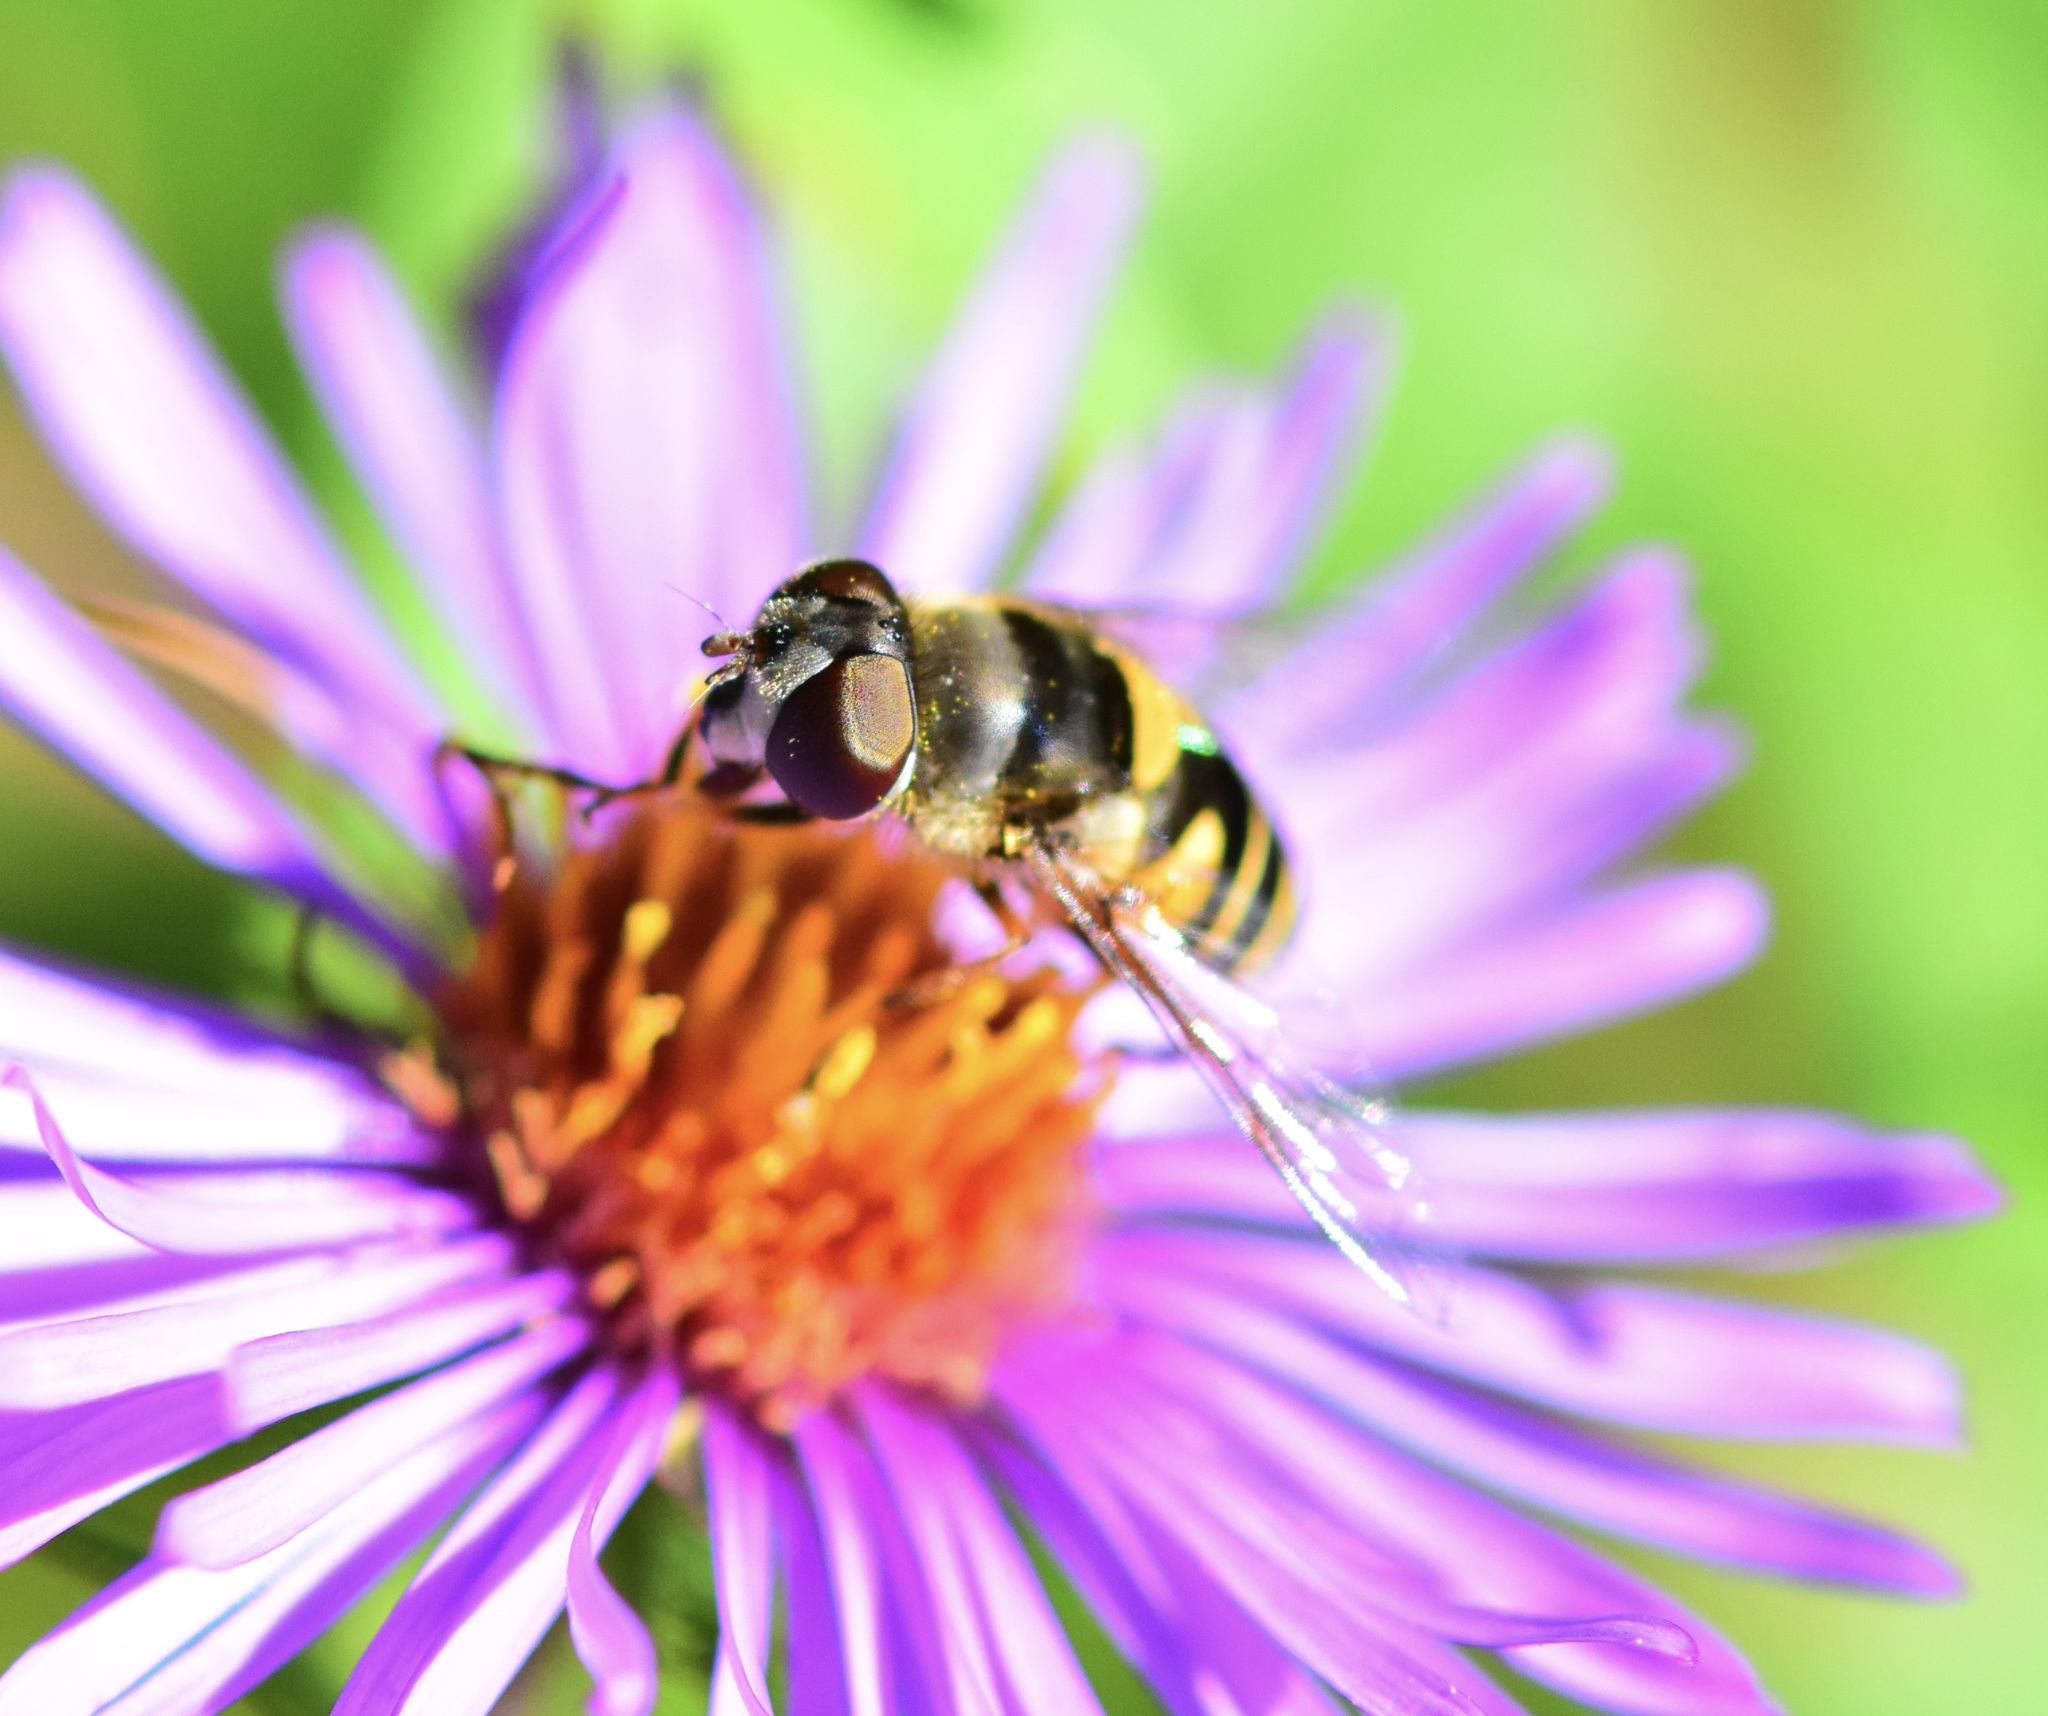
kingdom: Animalia
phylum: Arthropoda
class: Insecta
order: Diptera
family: Syrphidae
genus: Eristalis
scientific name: Eristalis transversa
